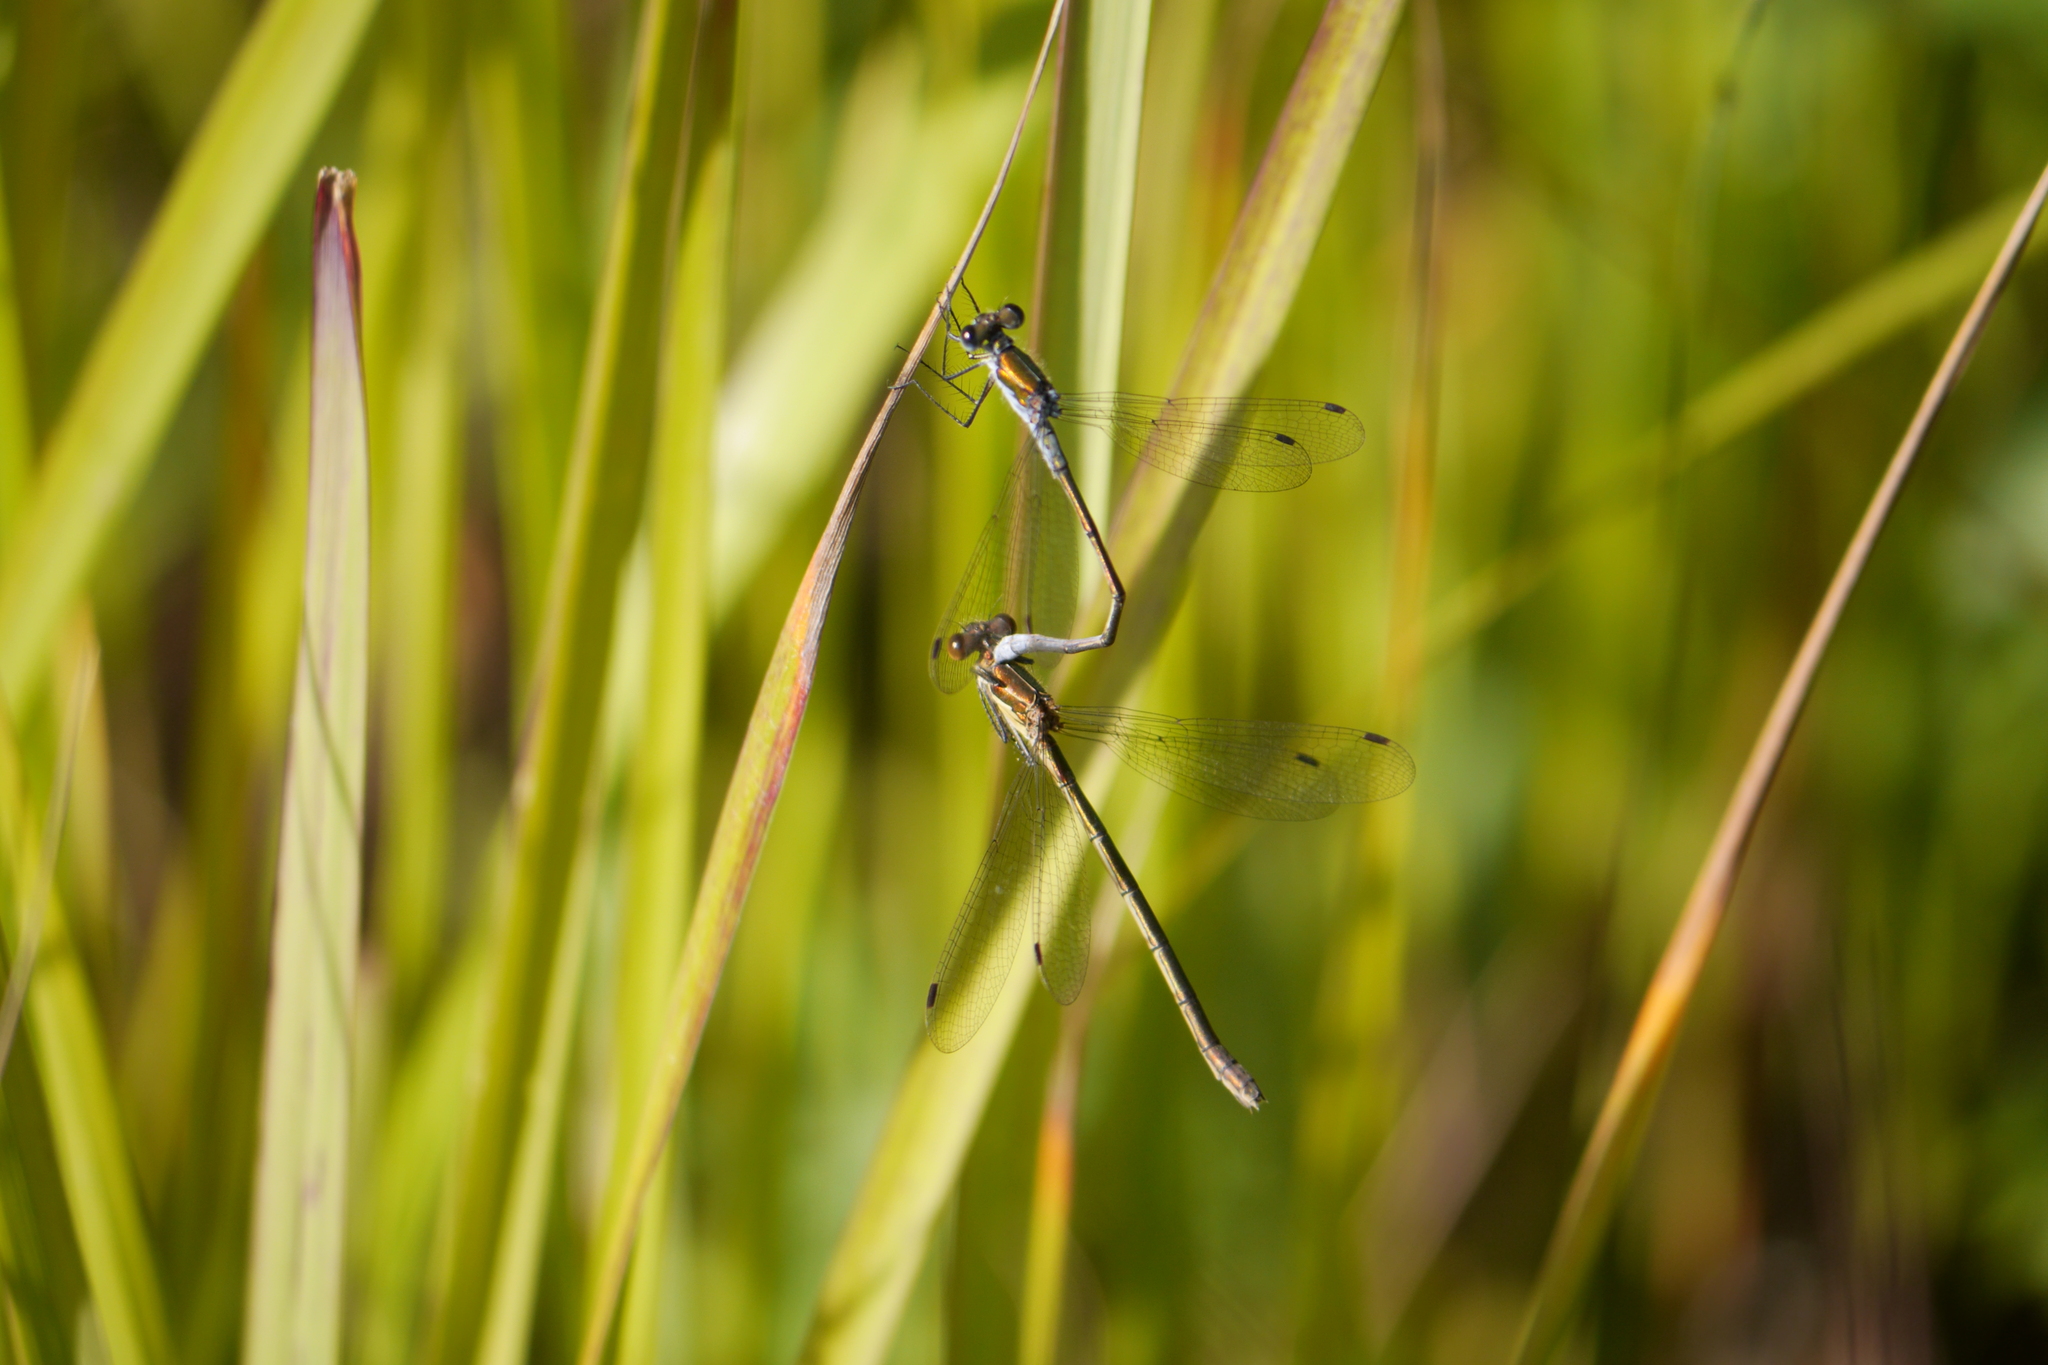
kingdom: Animalia
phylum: Arthropoda
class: Insecta
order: Odonata
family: Lestidae
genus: Lestes
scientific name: Lestes sponsa
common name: Common spreadwing
